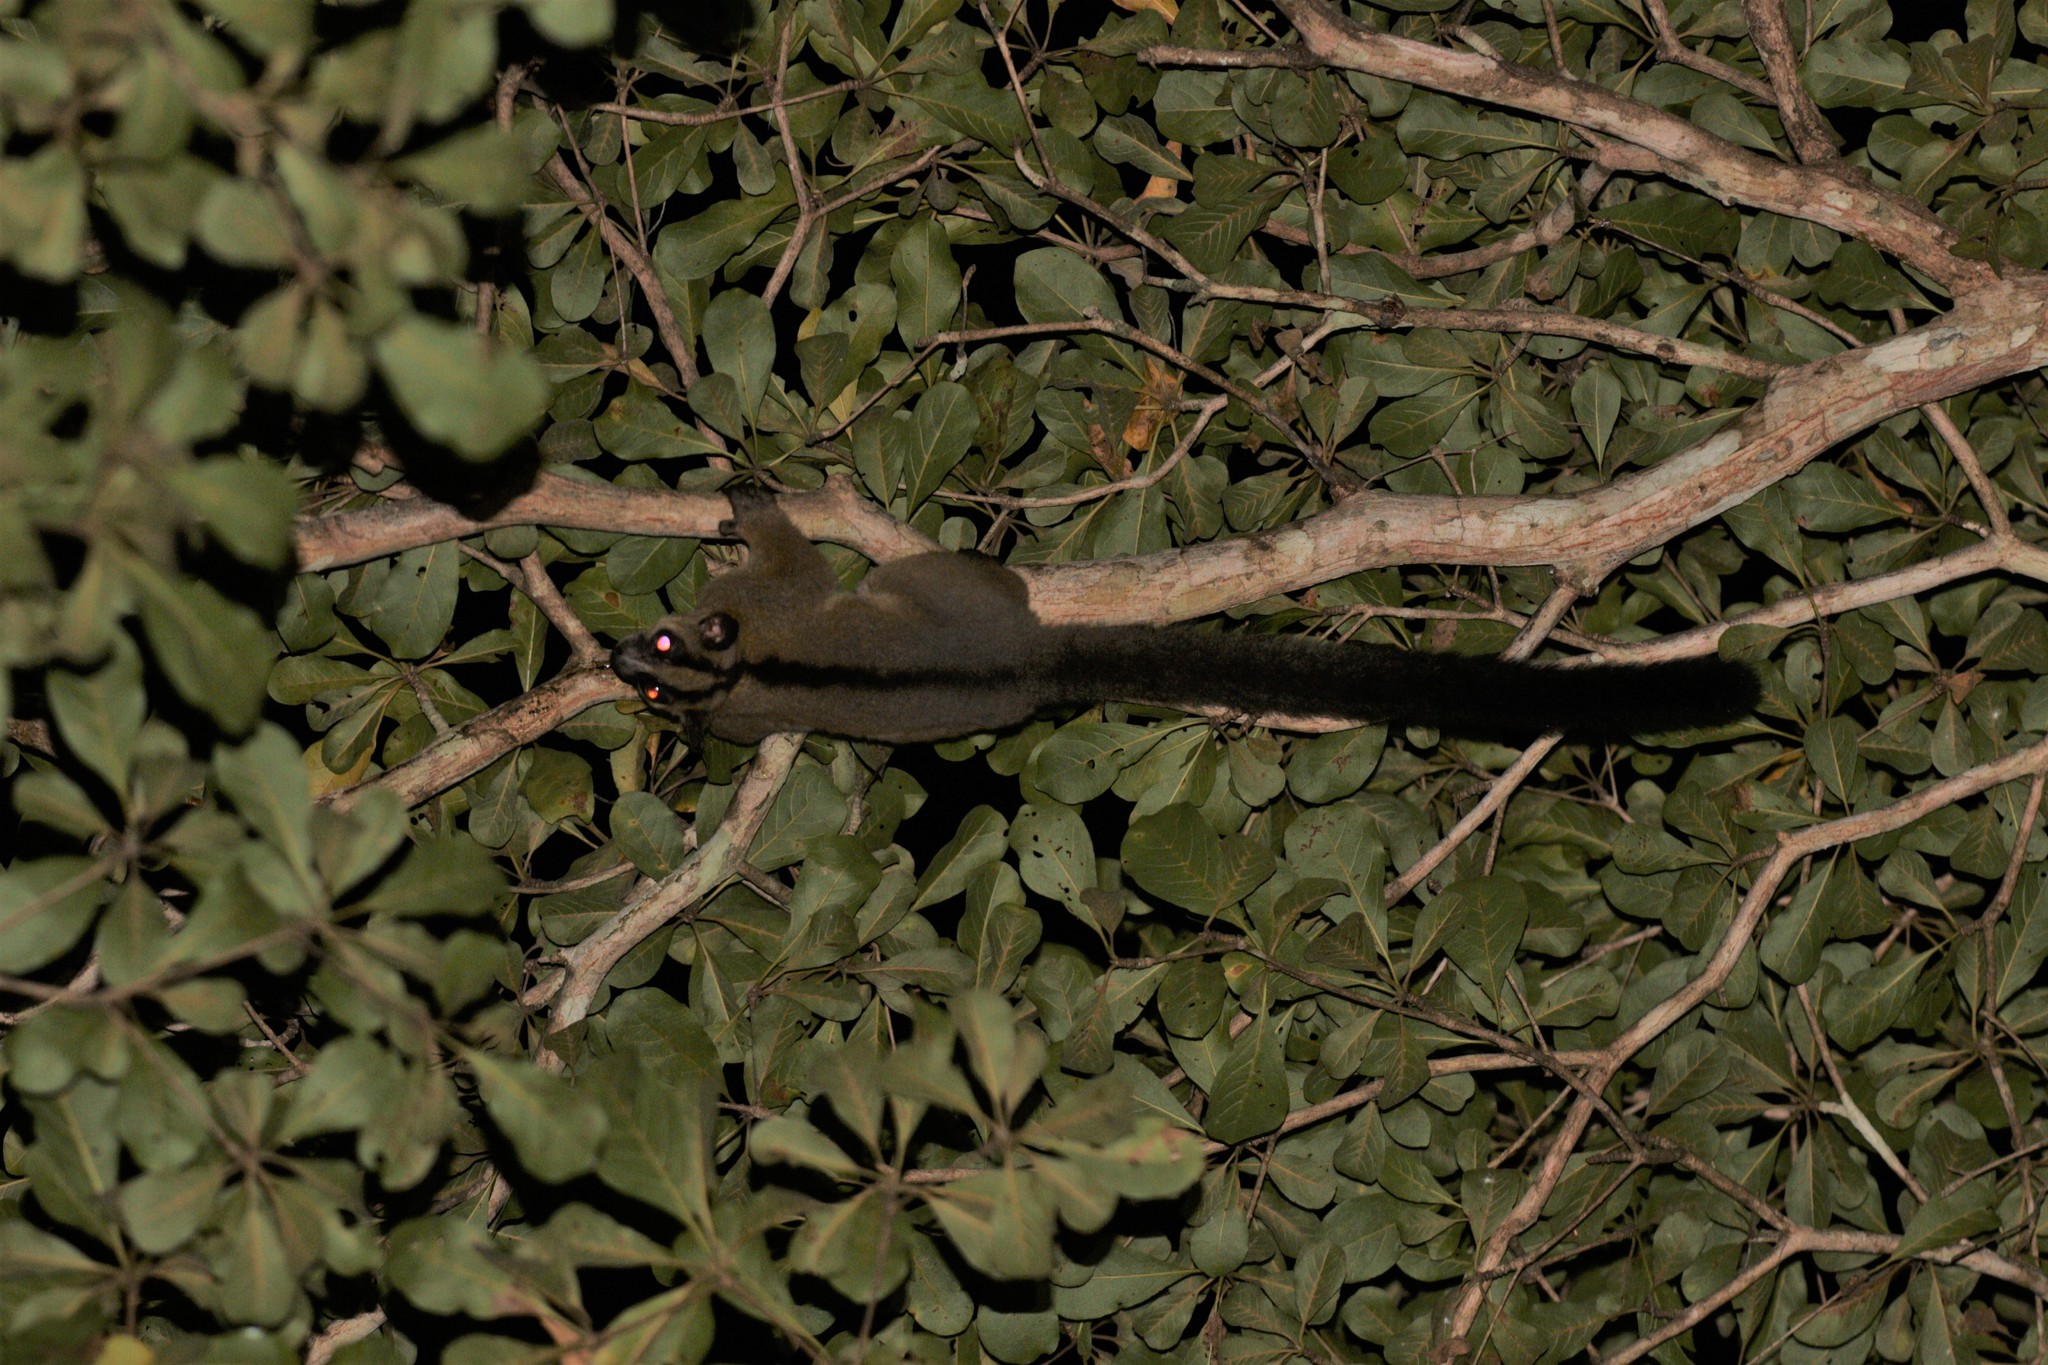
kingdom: Animalia
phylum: Chordata
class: Mammalia
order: Primates
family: Cheirogaleidae
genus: Phaner
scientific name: Phaner pallescens
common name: Pale fork-marked lemur
